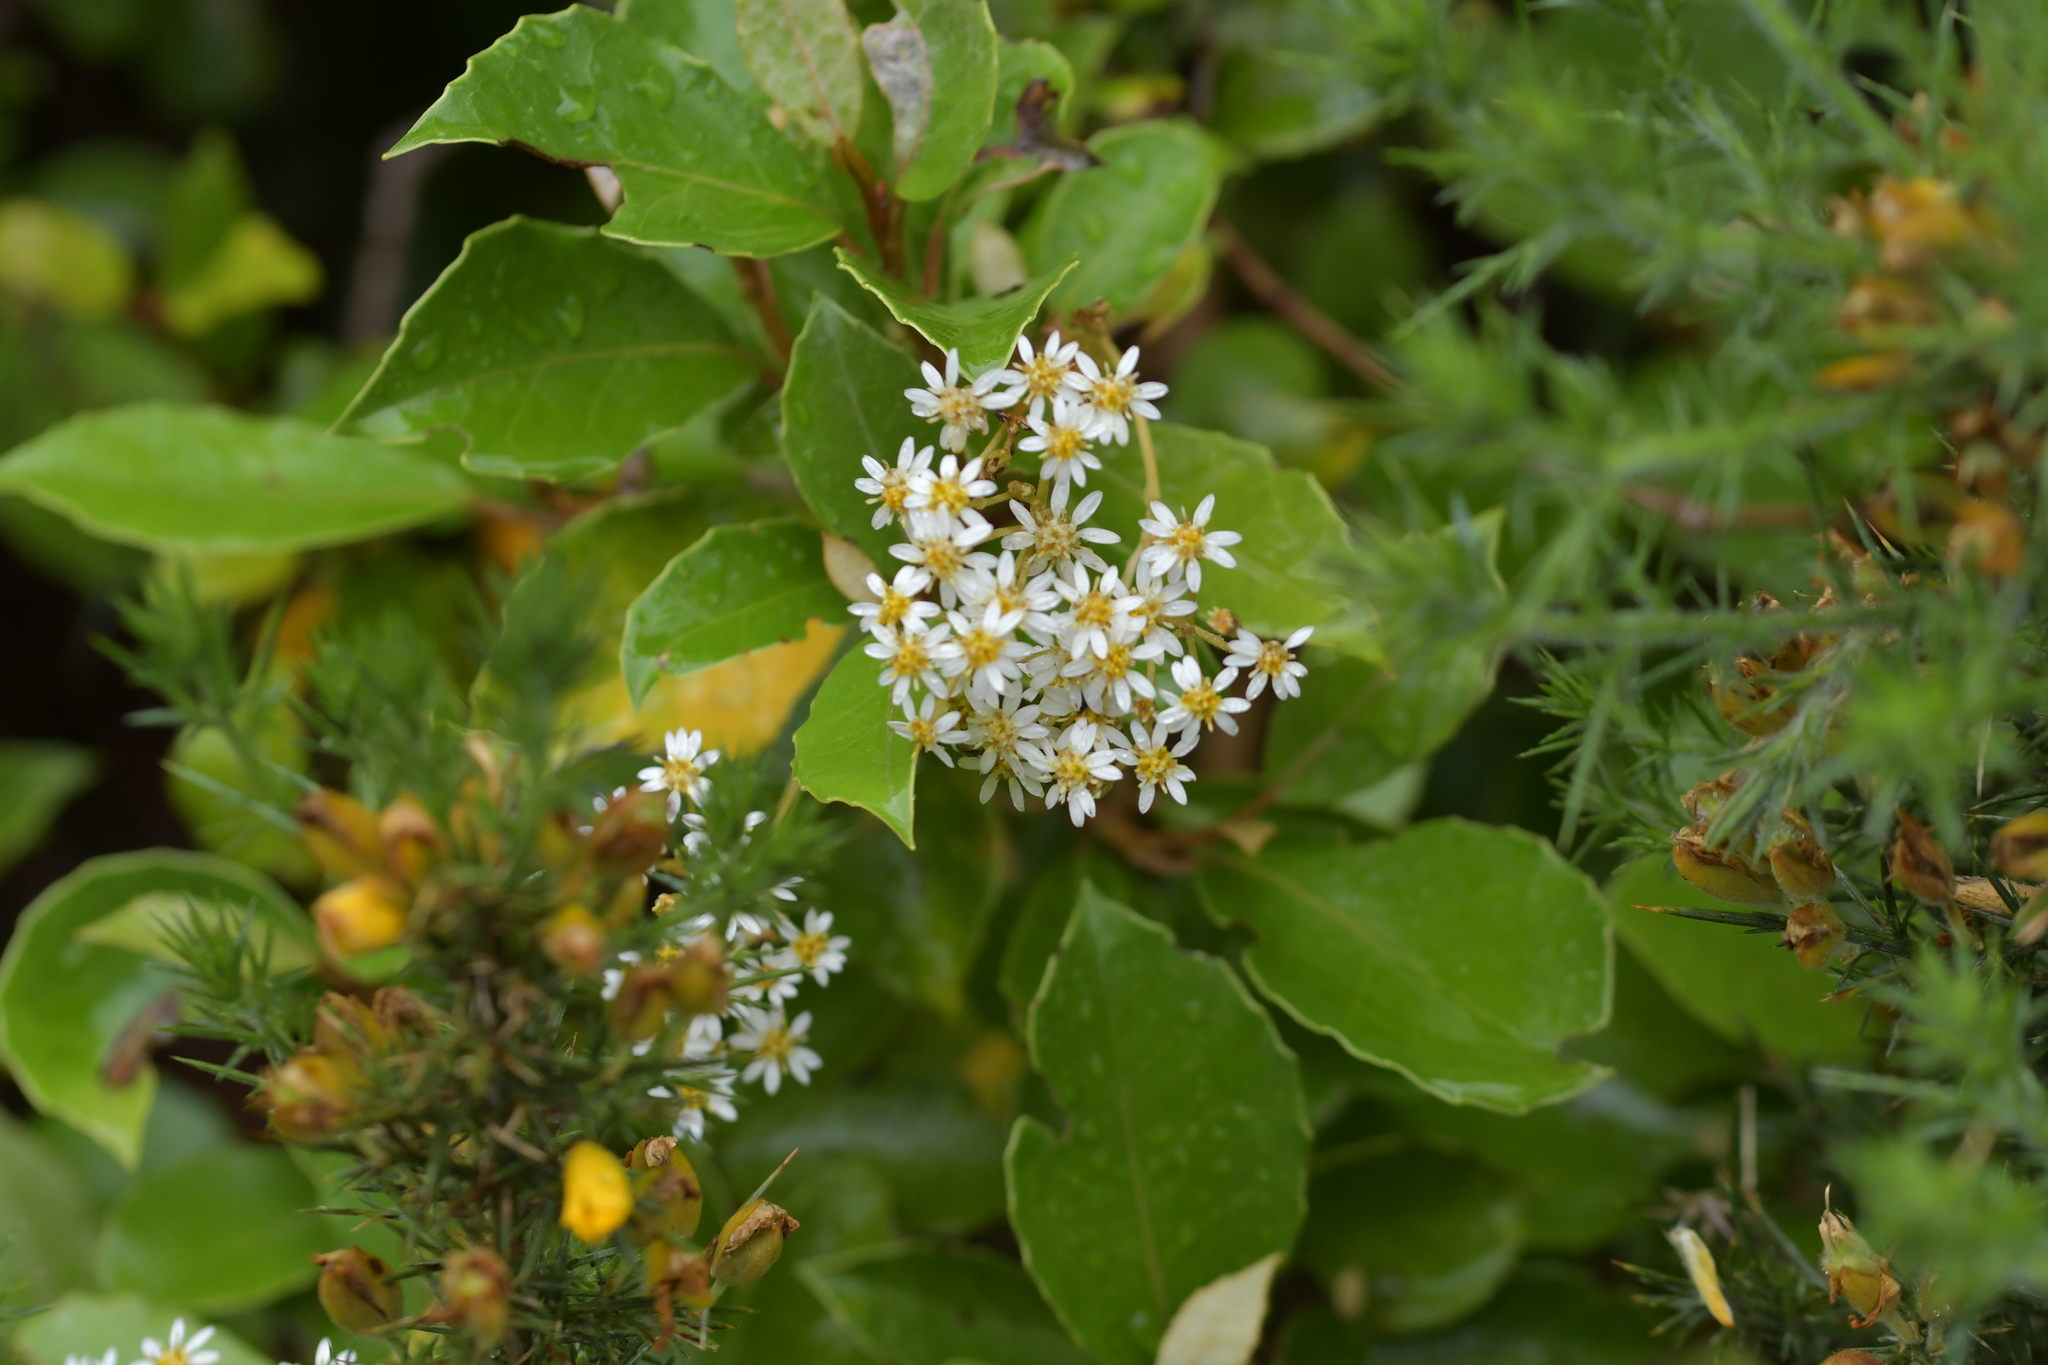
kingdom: Plantae
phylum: Tracheophyta
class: Magnoliopsida
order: Asterales
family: Asteraceae
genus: Olearia
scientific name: Olearia arborescens
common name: Glossy tree daisy
